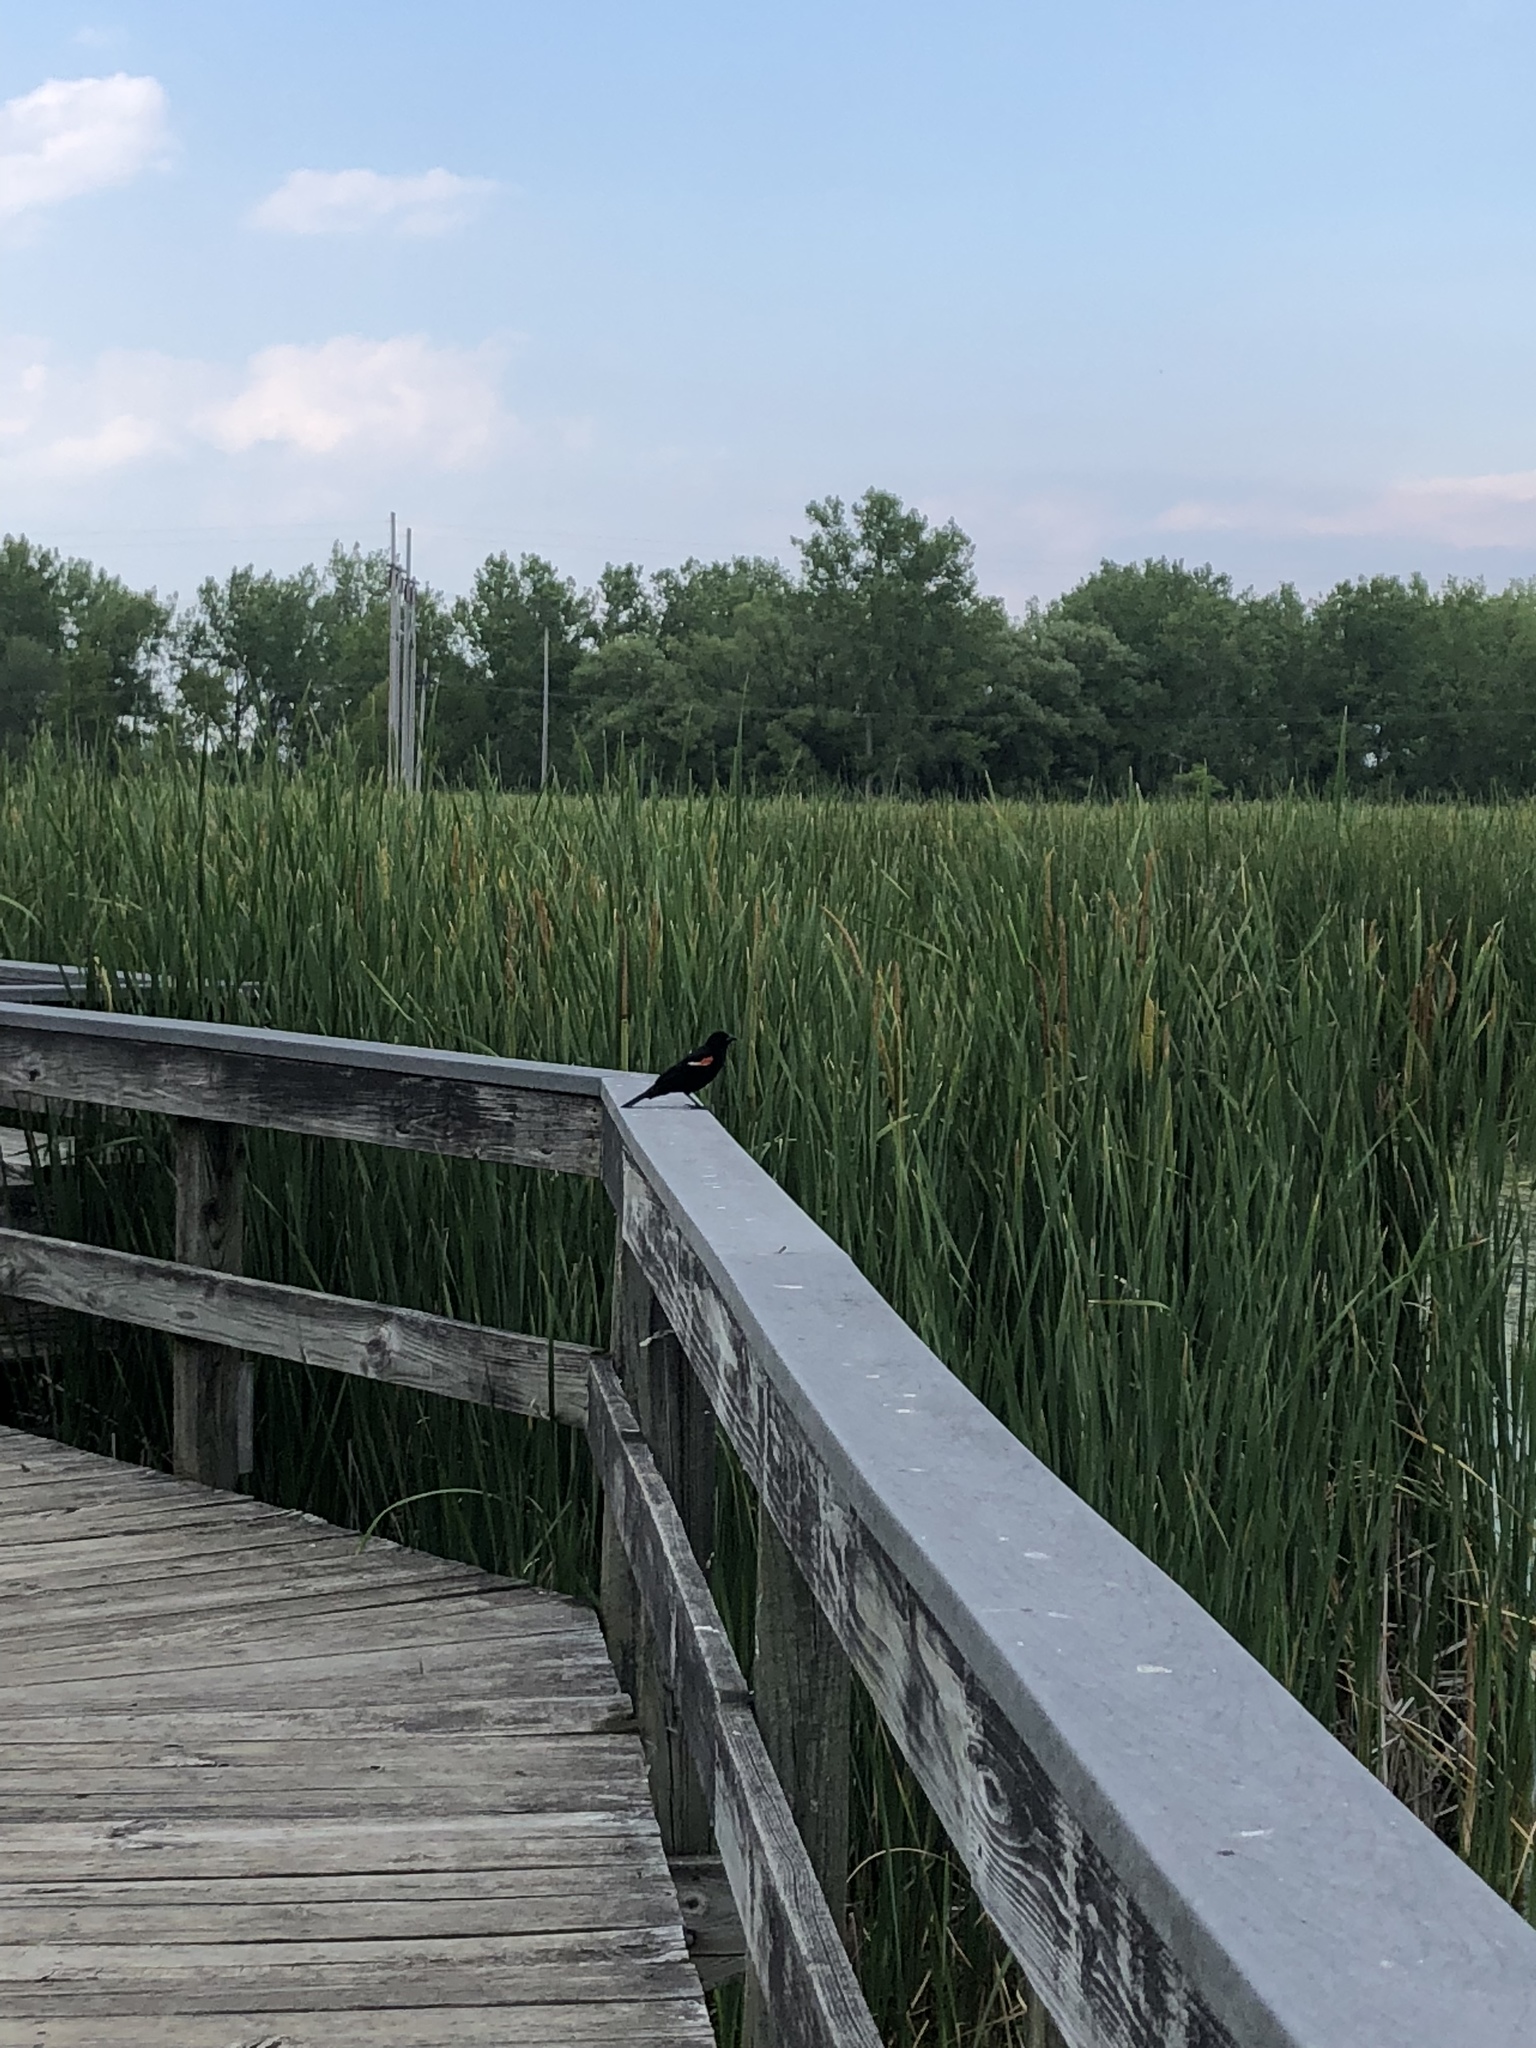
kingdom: Animalia
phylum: Chordata
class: Aves
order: Passeriformes
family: Icteridae
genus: Agelaius
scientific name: Agelaius phoeniceus
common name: Red-winged blackbird
